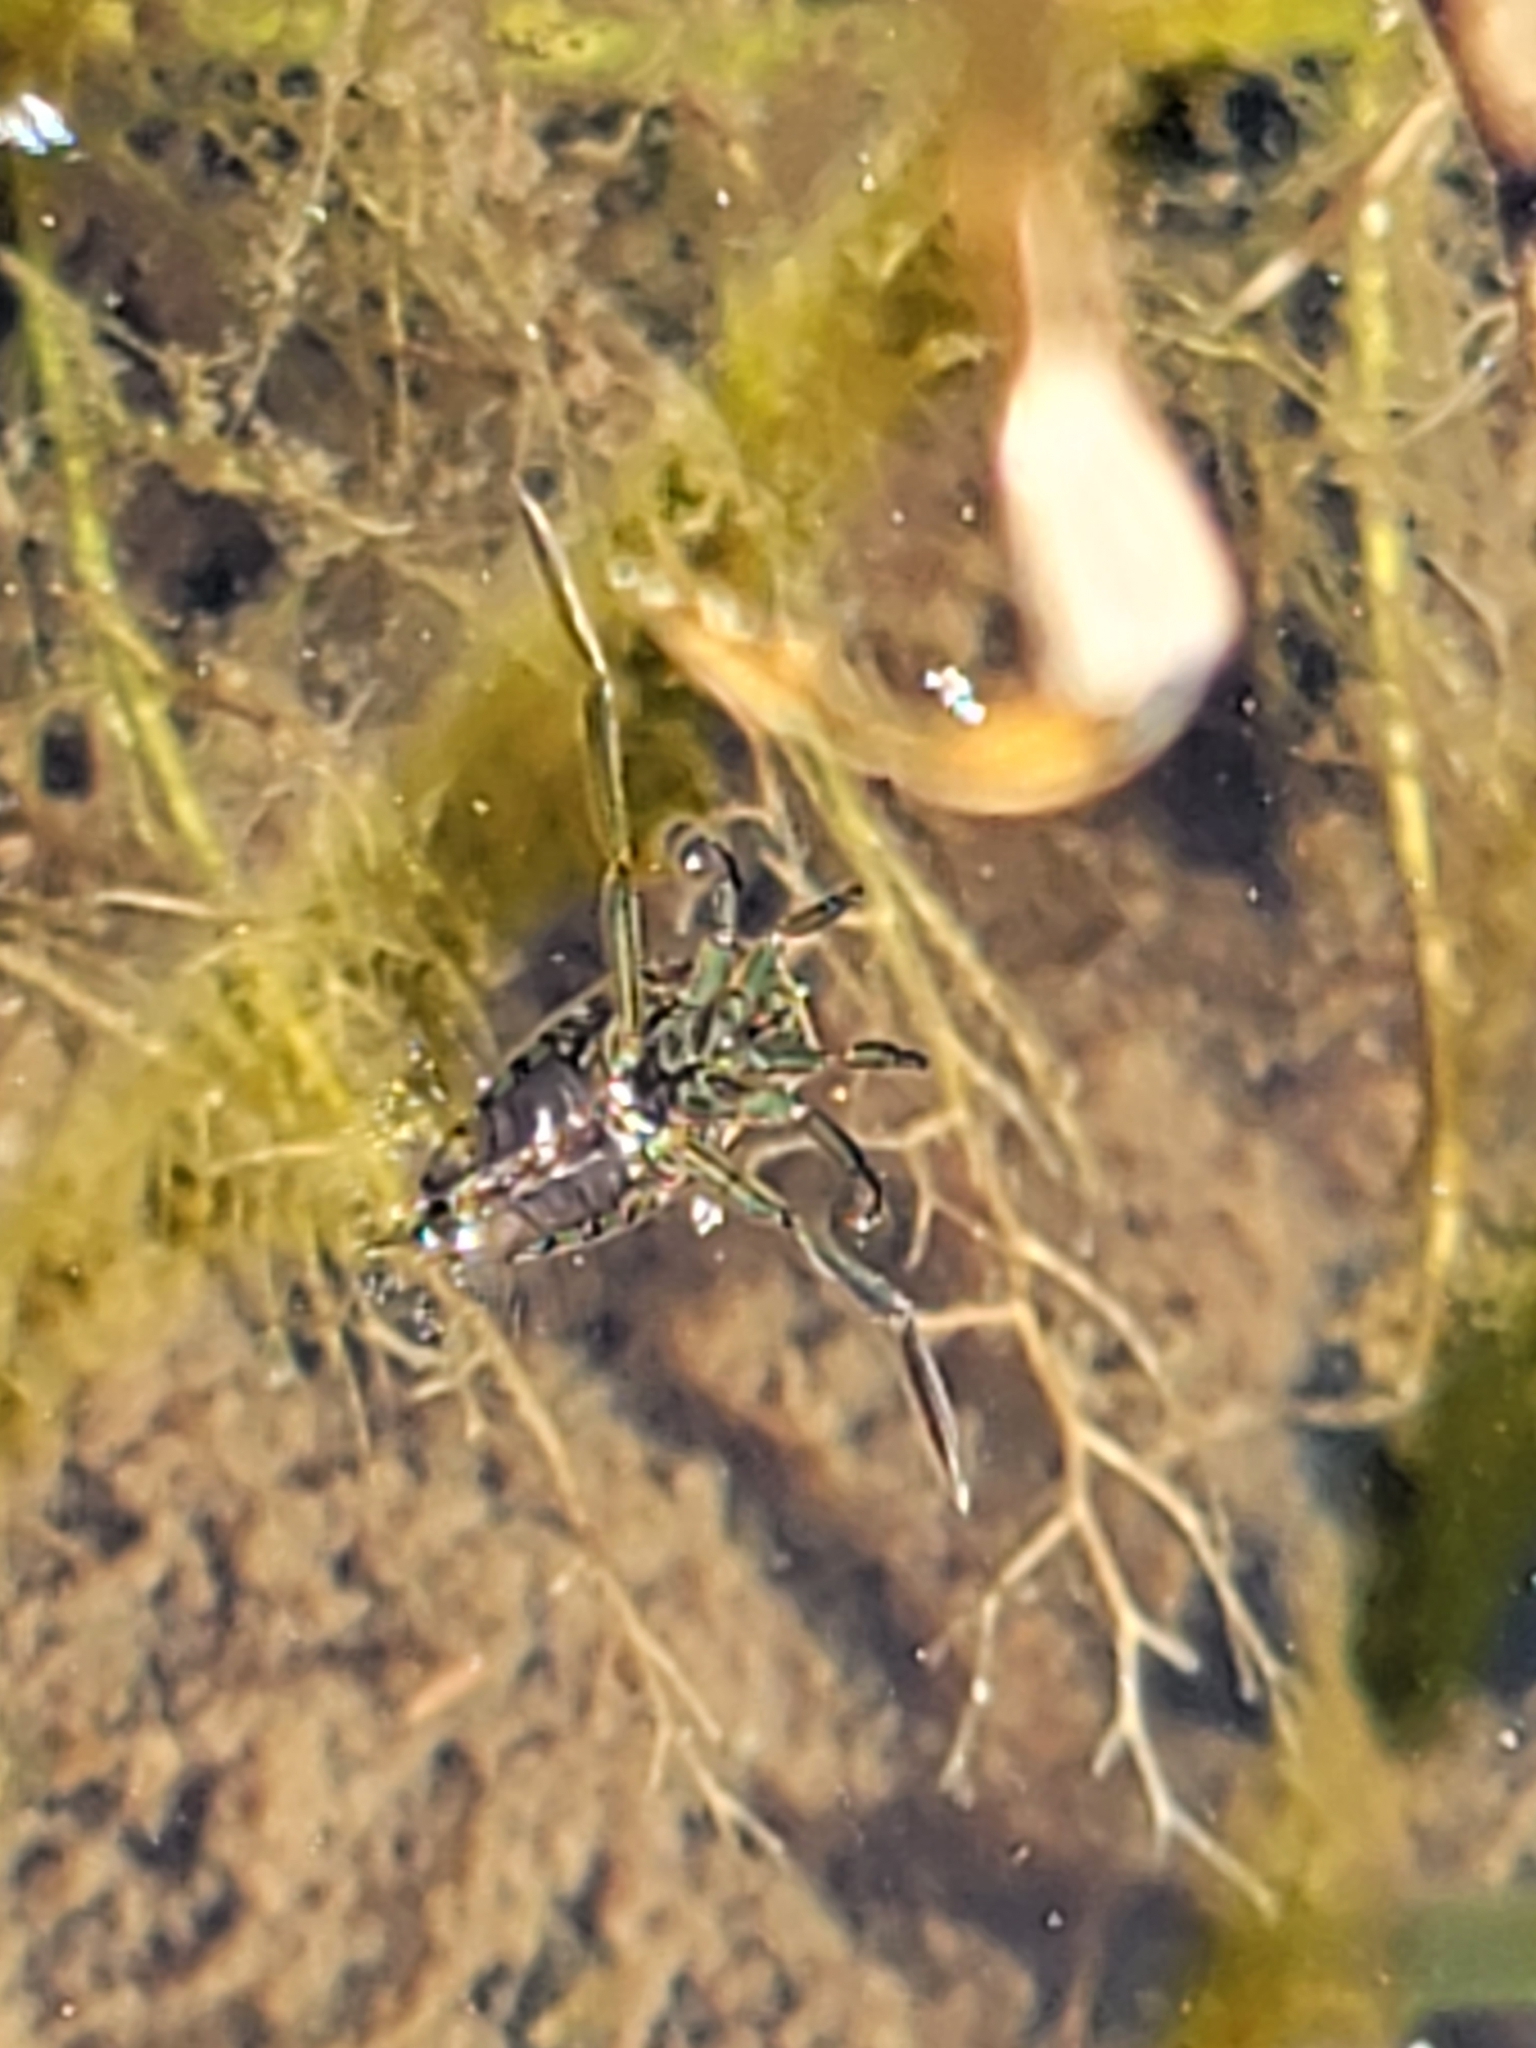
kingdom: Animalia
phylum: Arthropoda
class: Insecta
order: Hemiptera
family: Notonectidae
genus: Notonecta
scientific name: Notonecta
